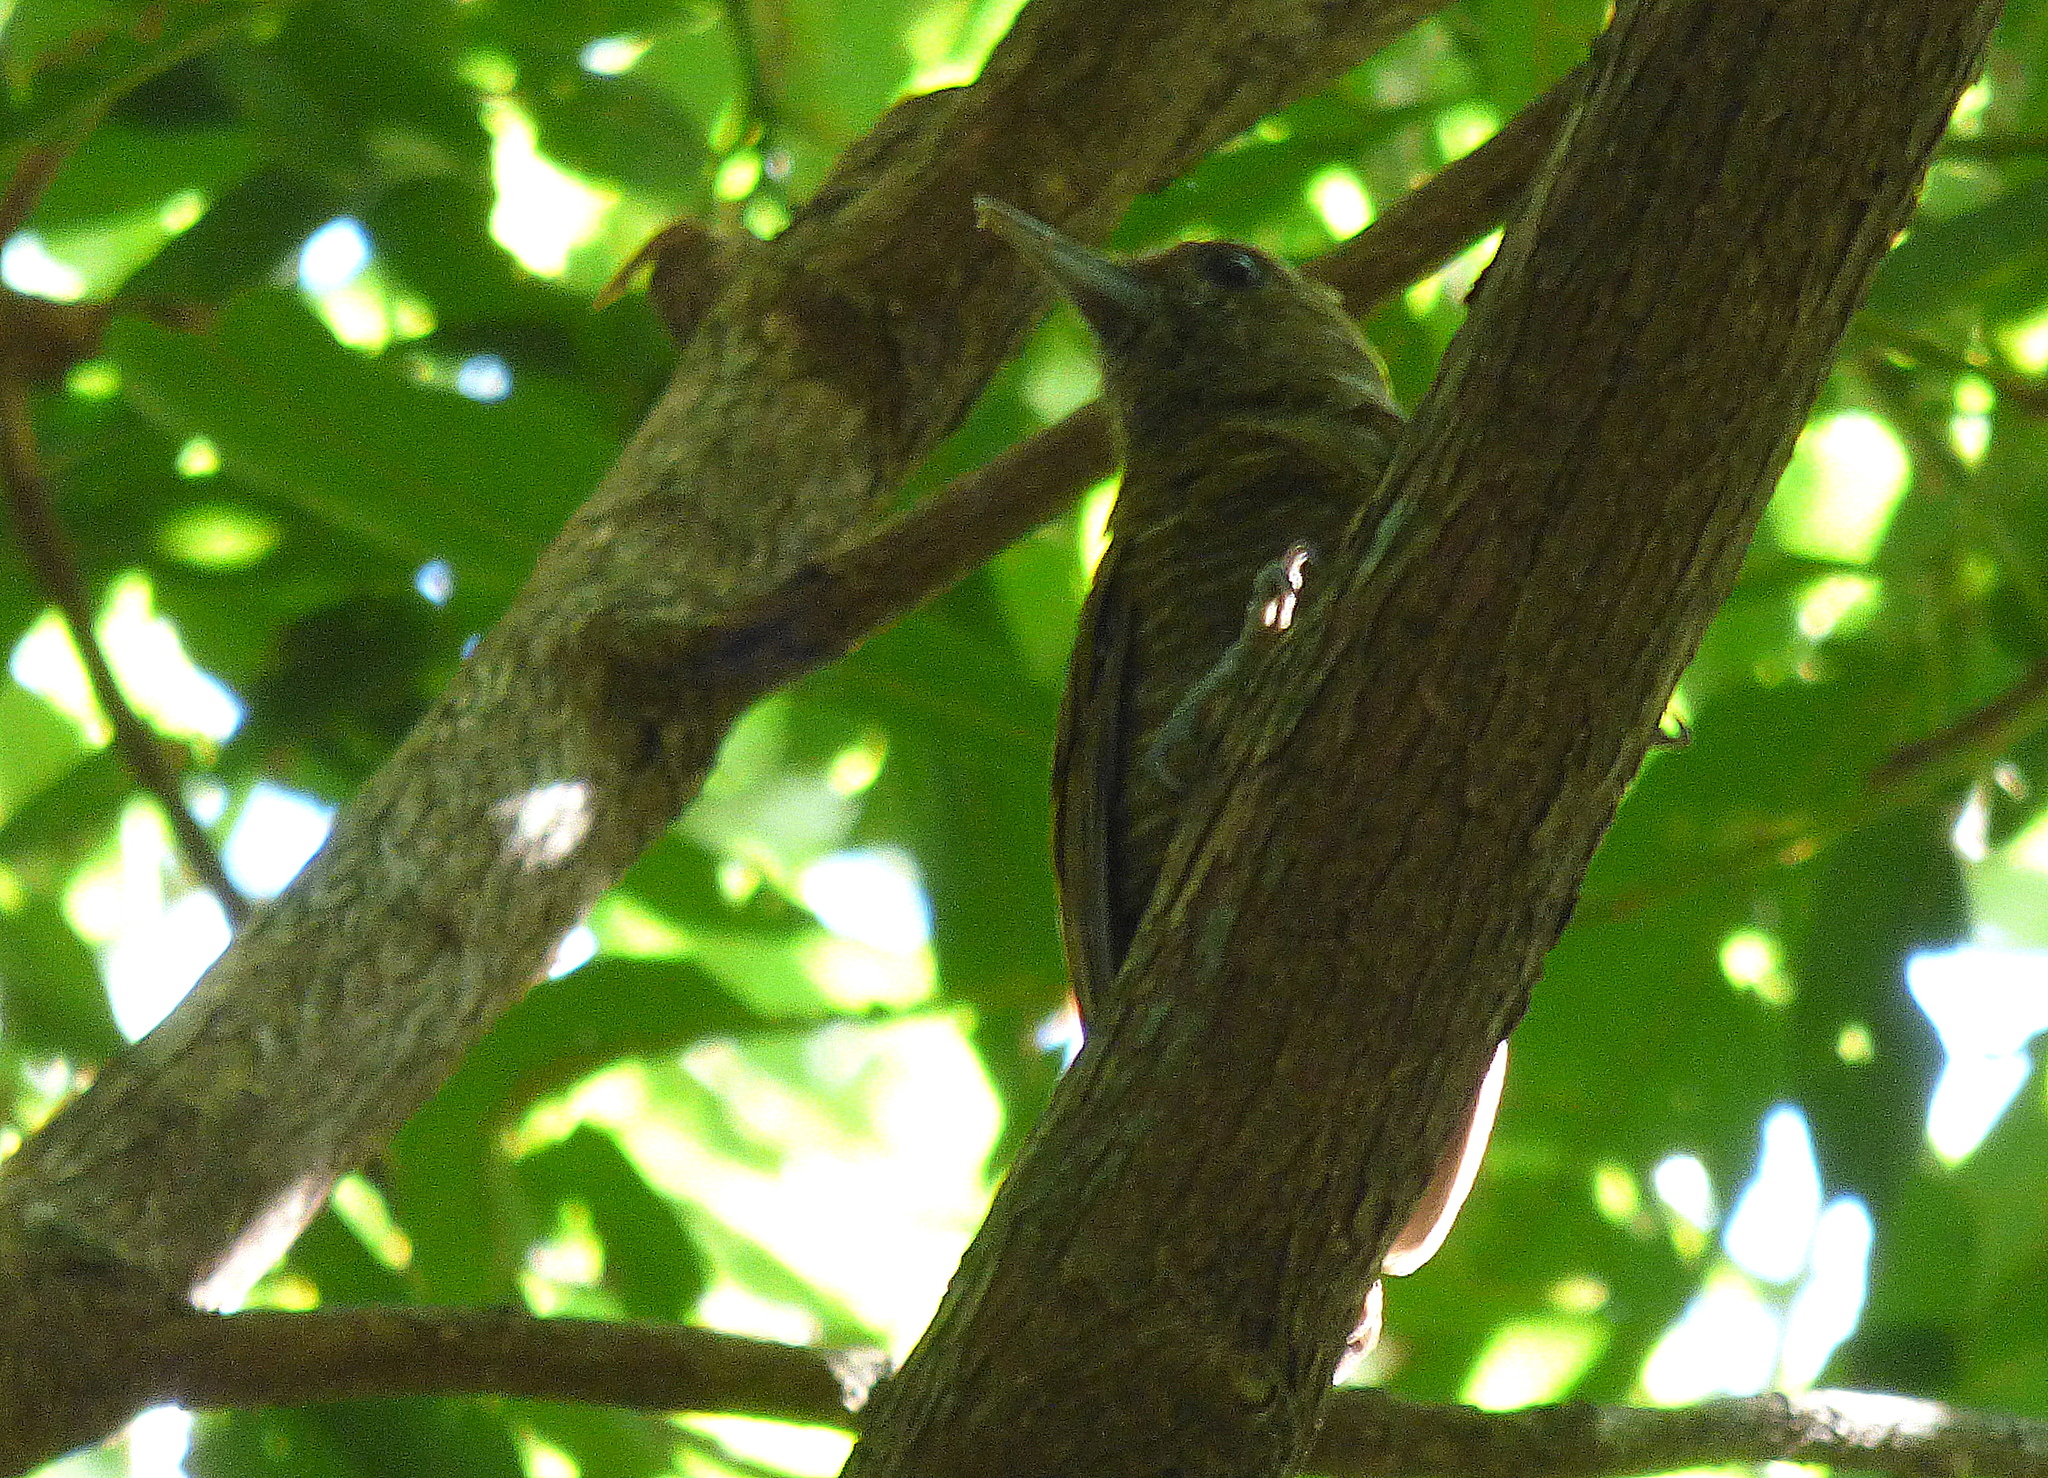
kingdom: Animalia
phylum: Chordata
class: Aves
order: Piciformes
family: Picidae
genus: Veniliornis
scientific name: Veniliornis passerinus
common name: Little woodpecker
